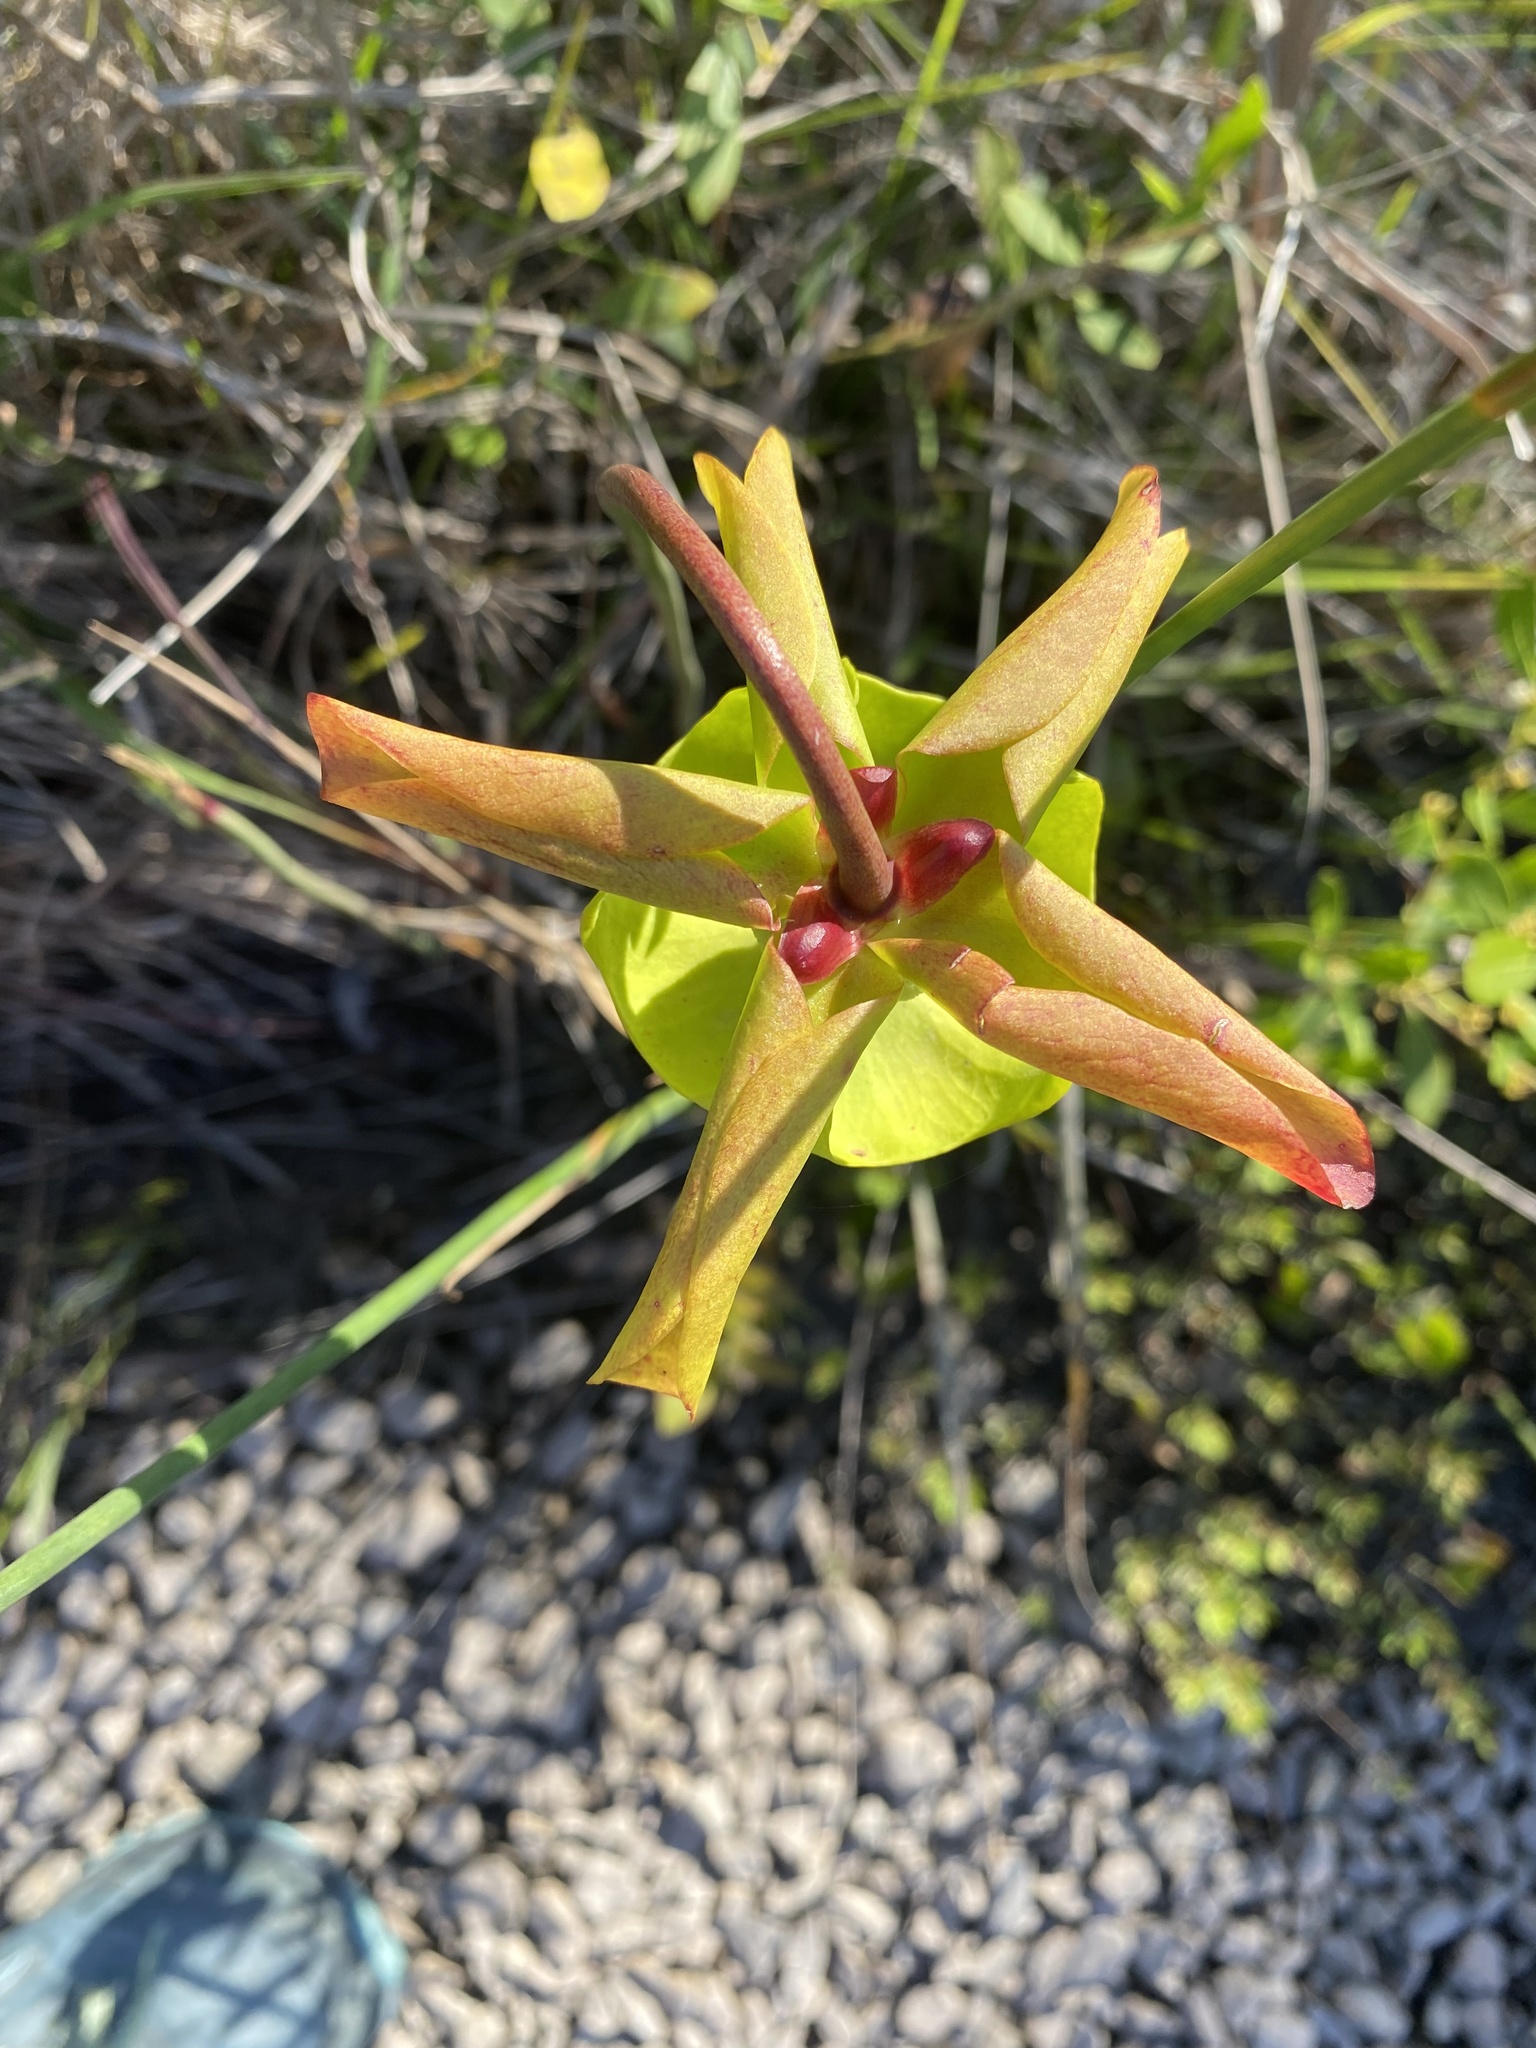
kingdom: Plantae
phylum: Tracheophyta
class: Magnoliopsida
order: Ericales
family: Sarraceniaceae
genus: Sarracenia
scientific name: Sarracenia alata
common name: Yellow trumpets
